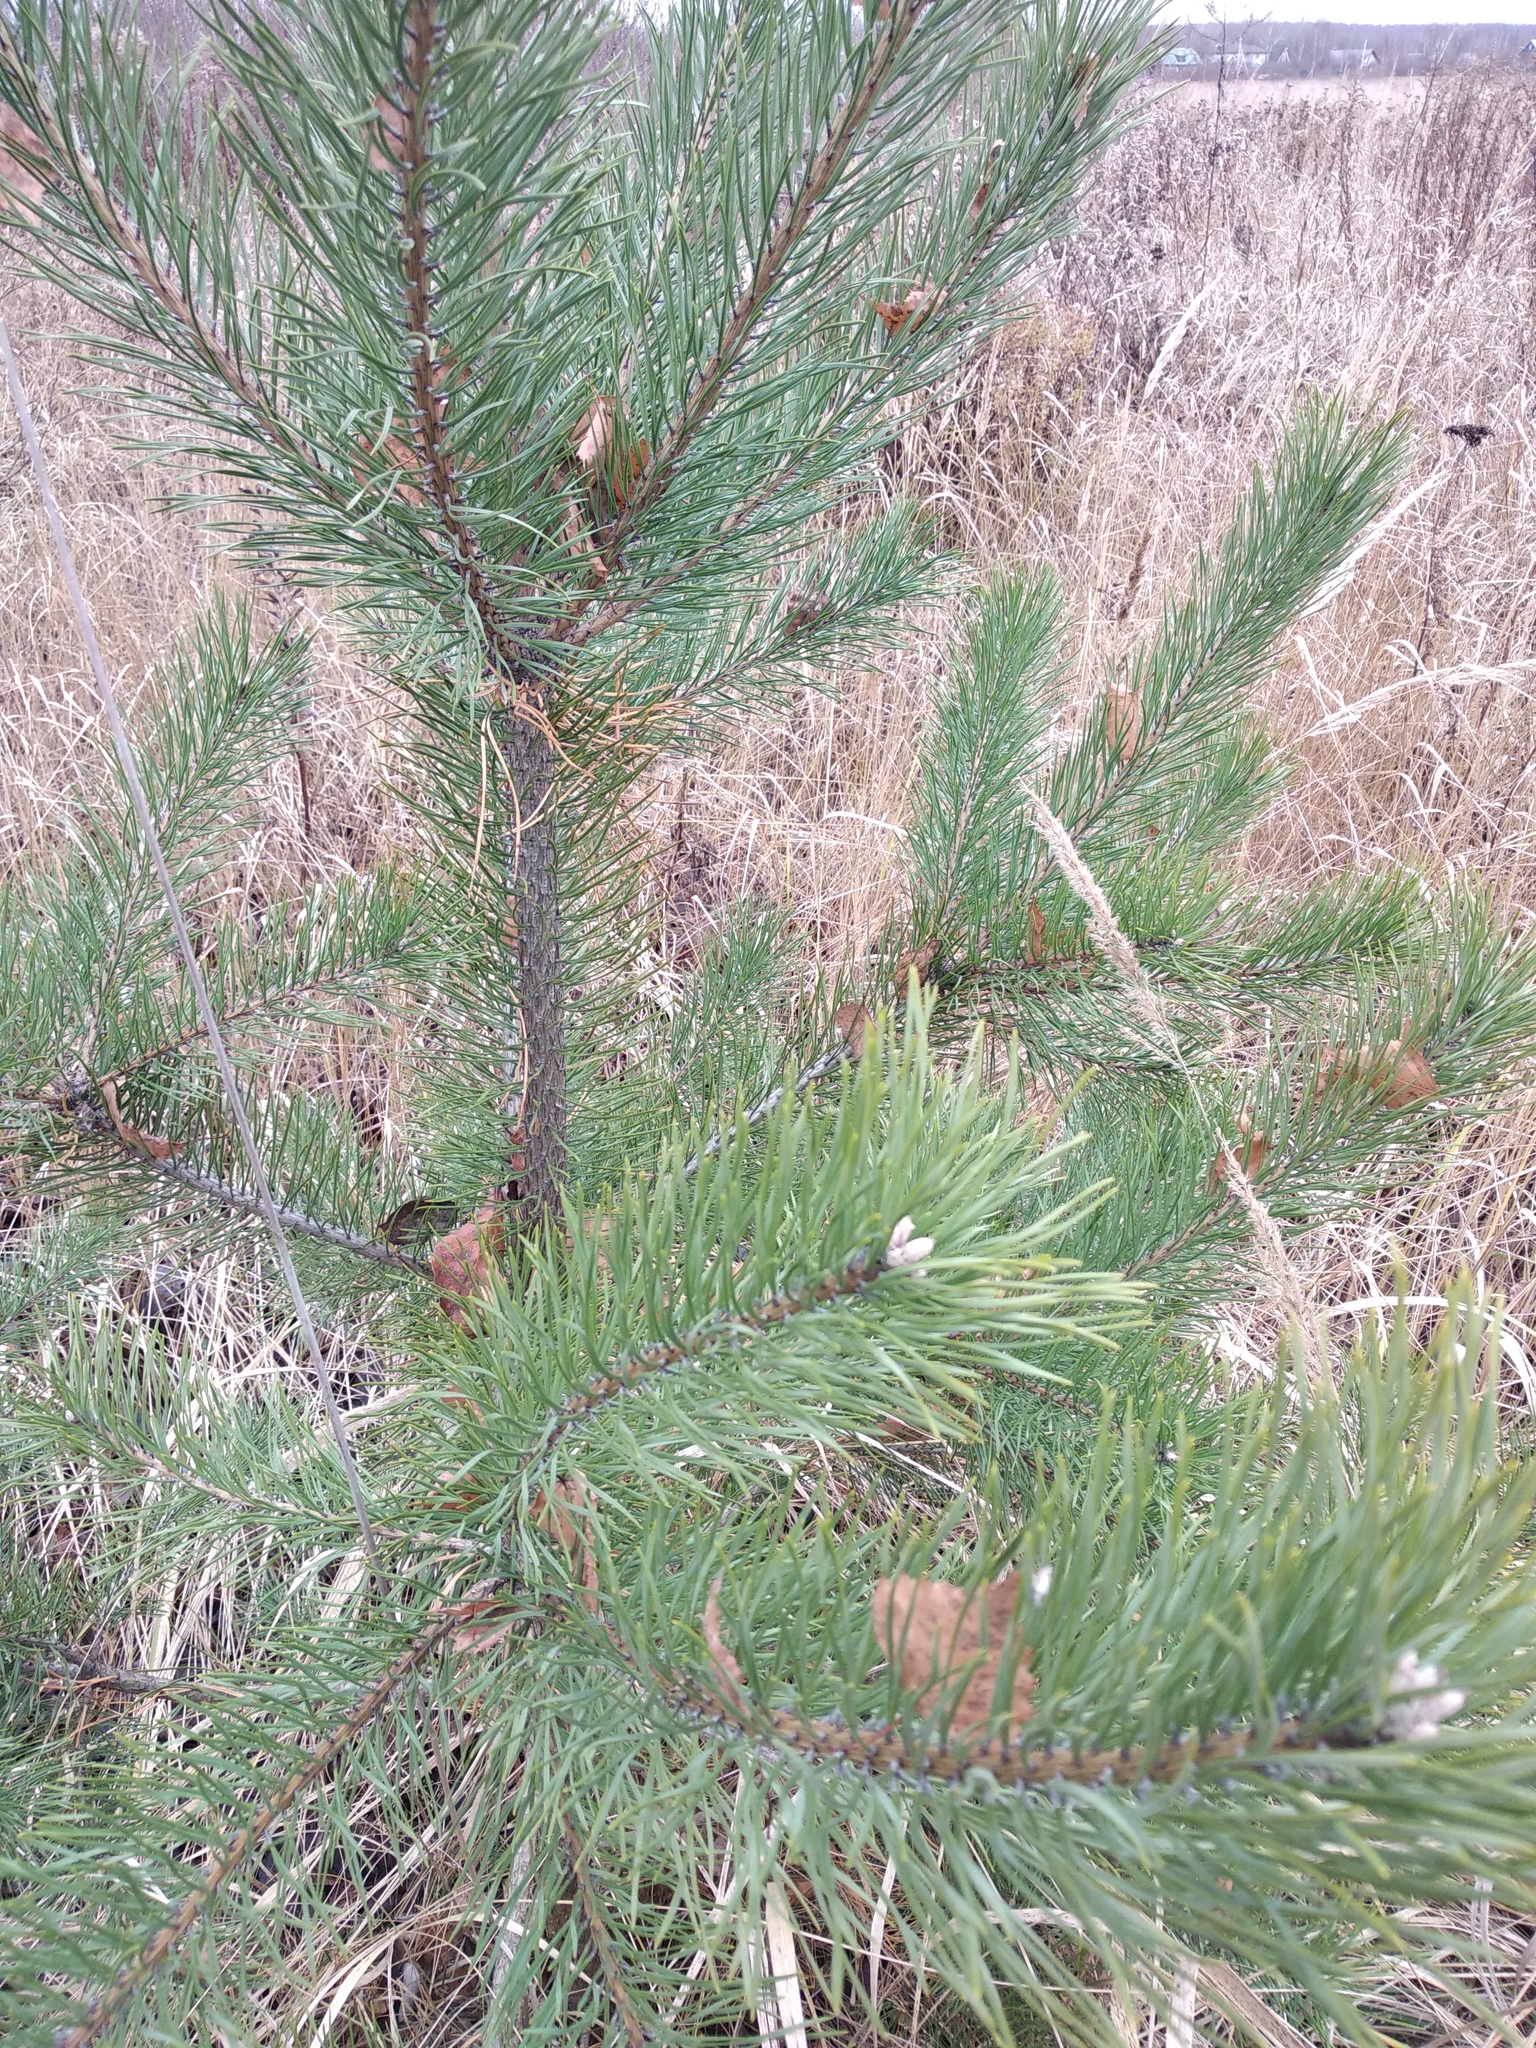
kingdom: Plantae
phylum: Tracheophyta
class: Pinopsida
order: Pinales
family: Pinaceae
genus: Pinus
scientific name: Pinus sylvestris
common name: Scots pine
